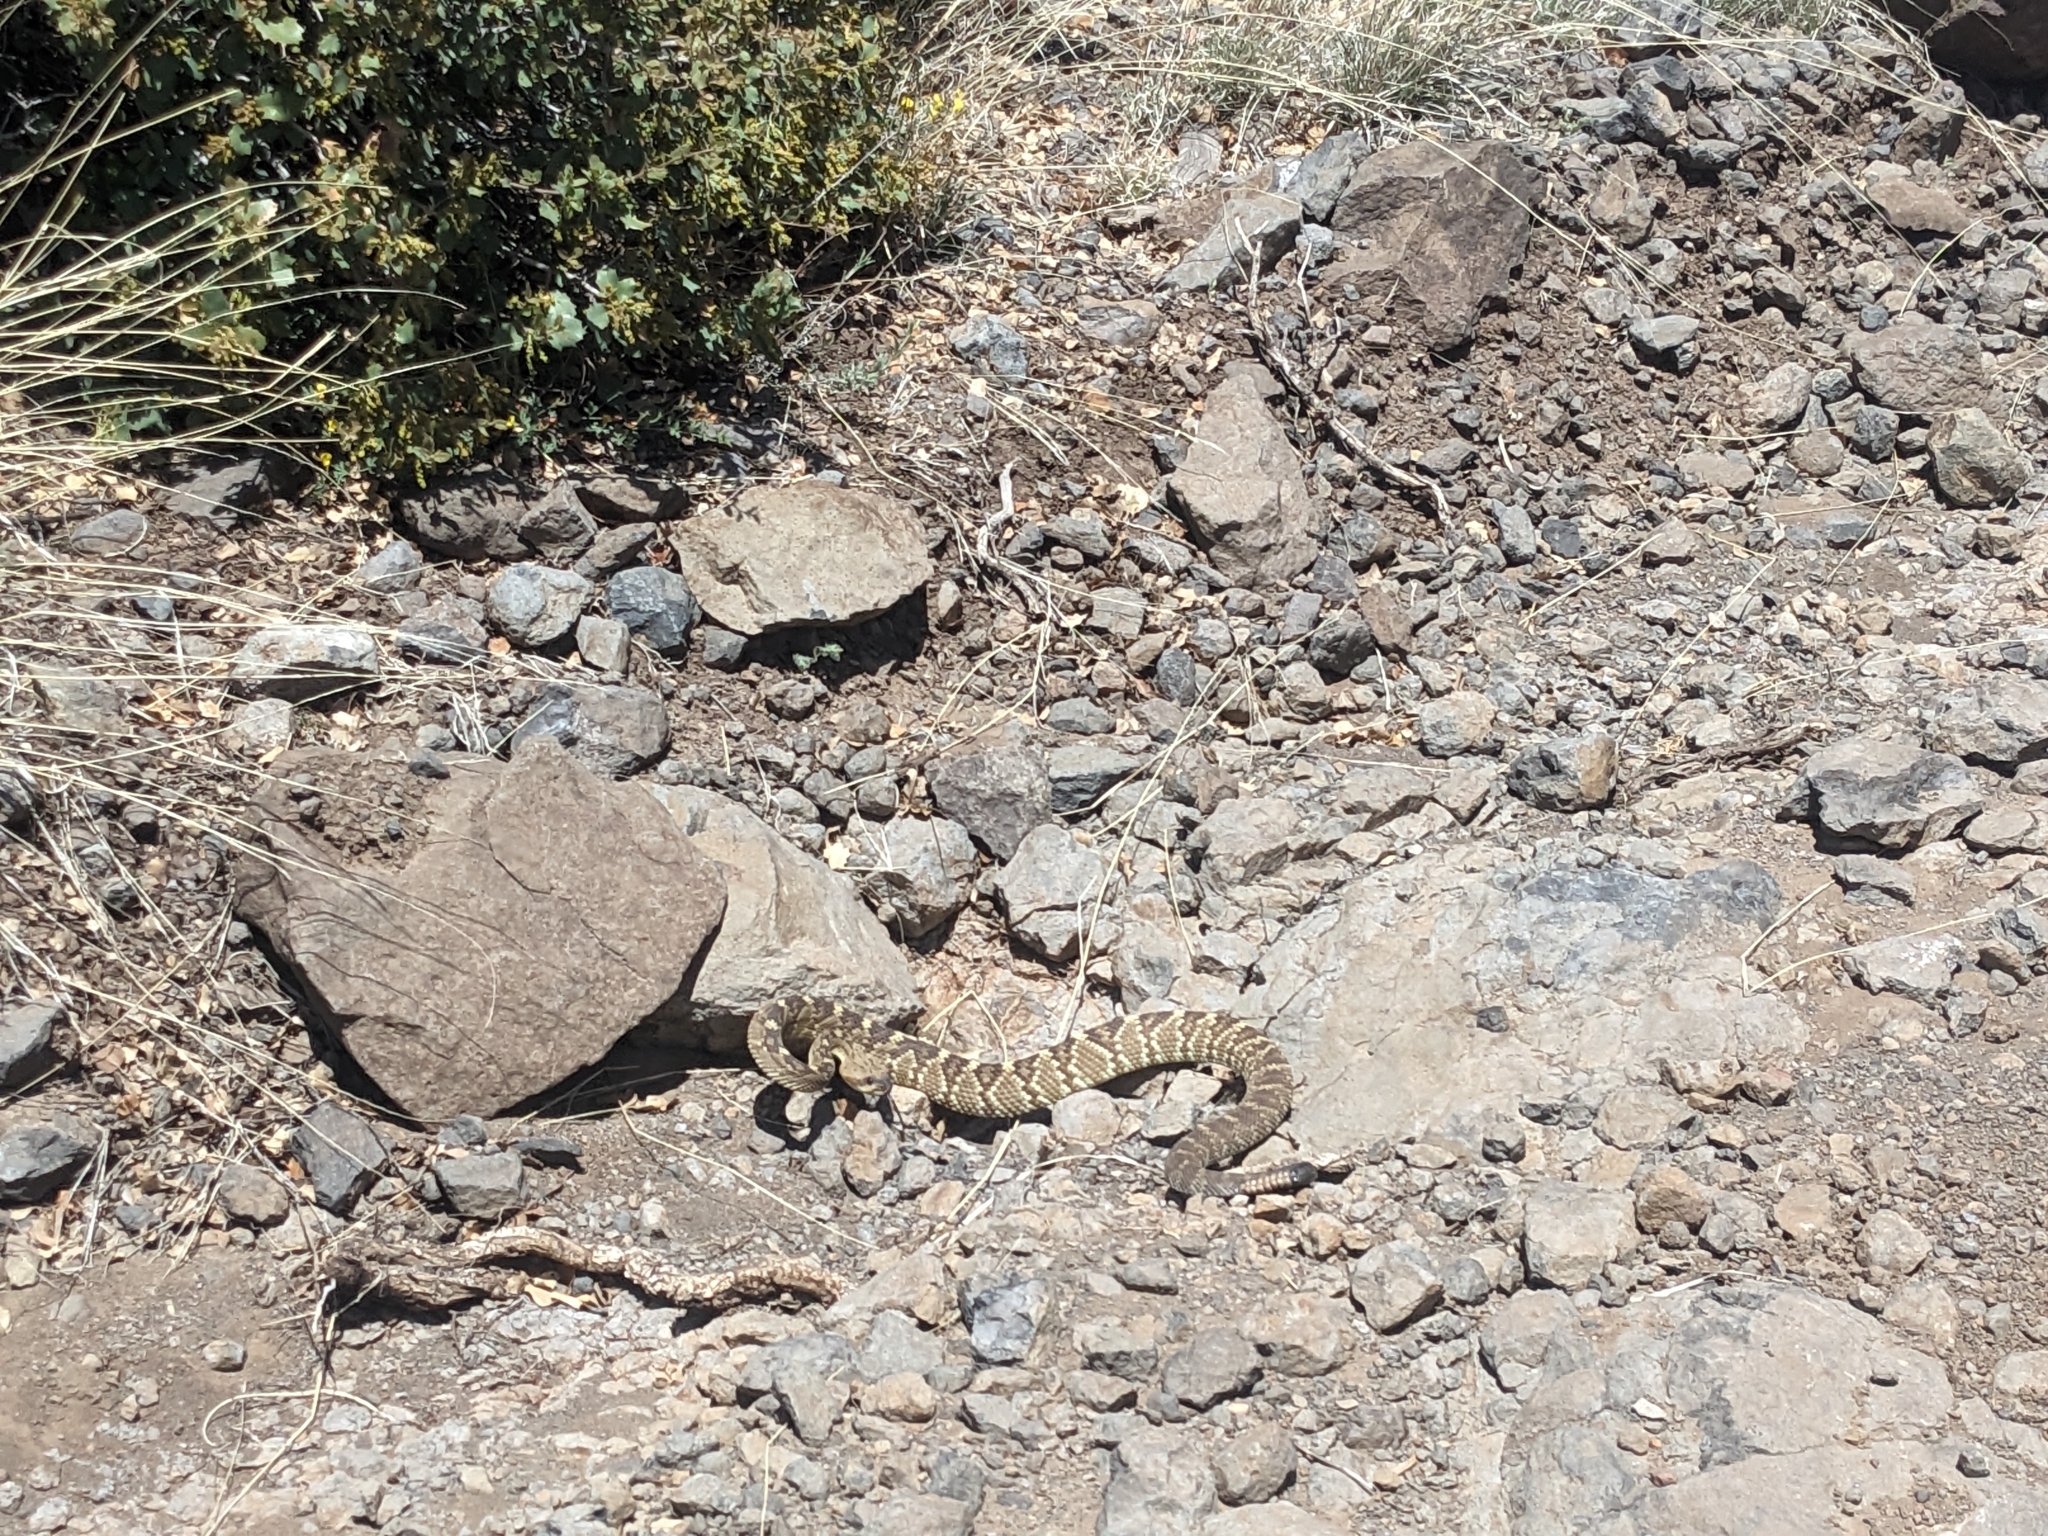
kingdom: Animalia
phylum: Chordata
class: Squamata
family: Viperidae
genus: Crotalus
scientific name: Crotalus molossus
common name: Black tailed rattlesnake
